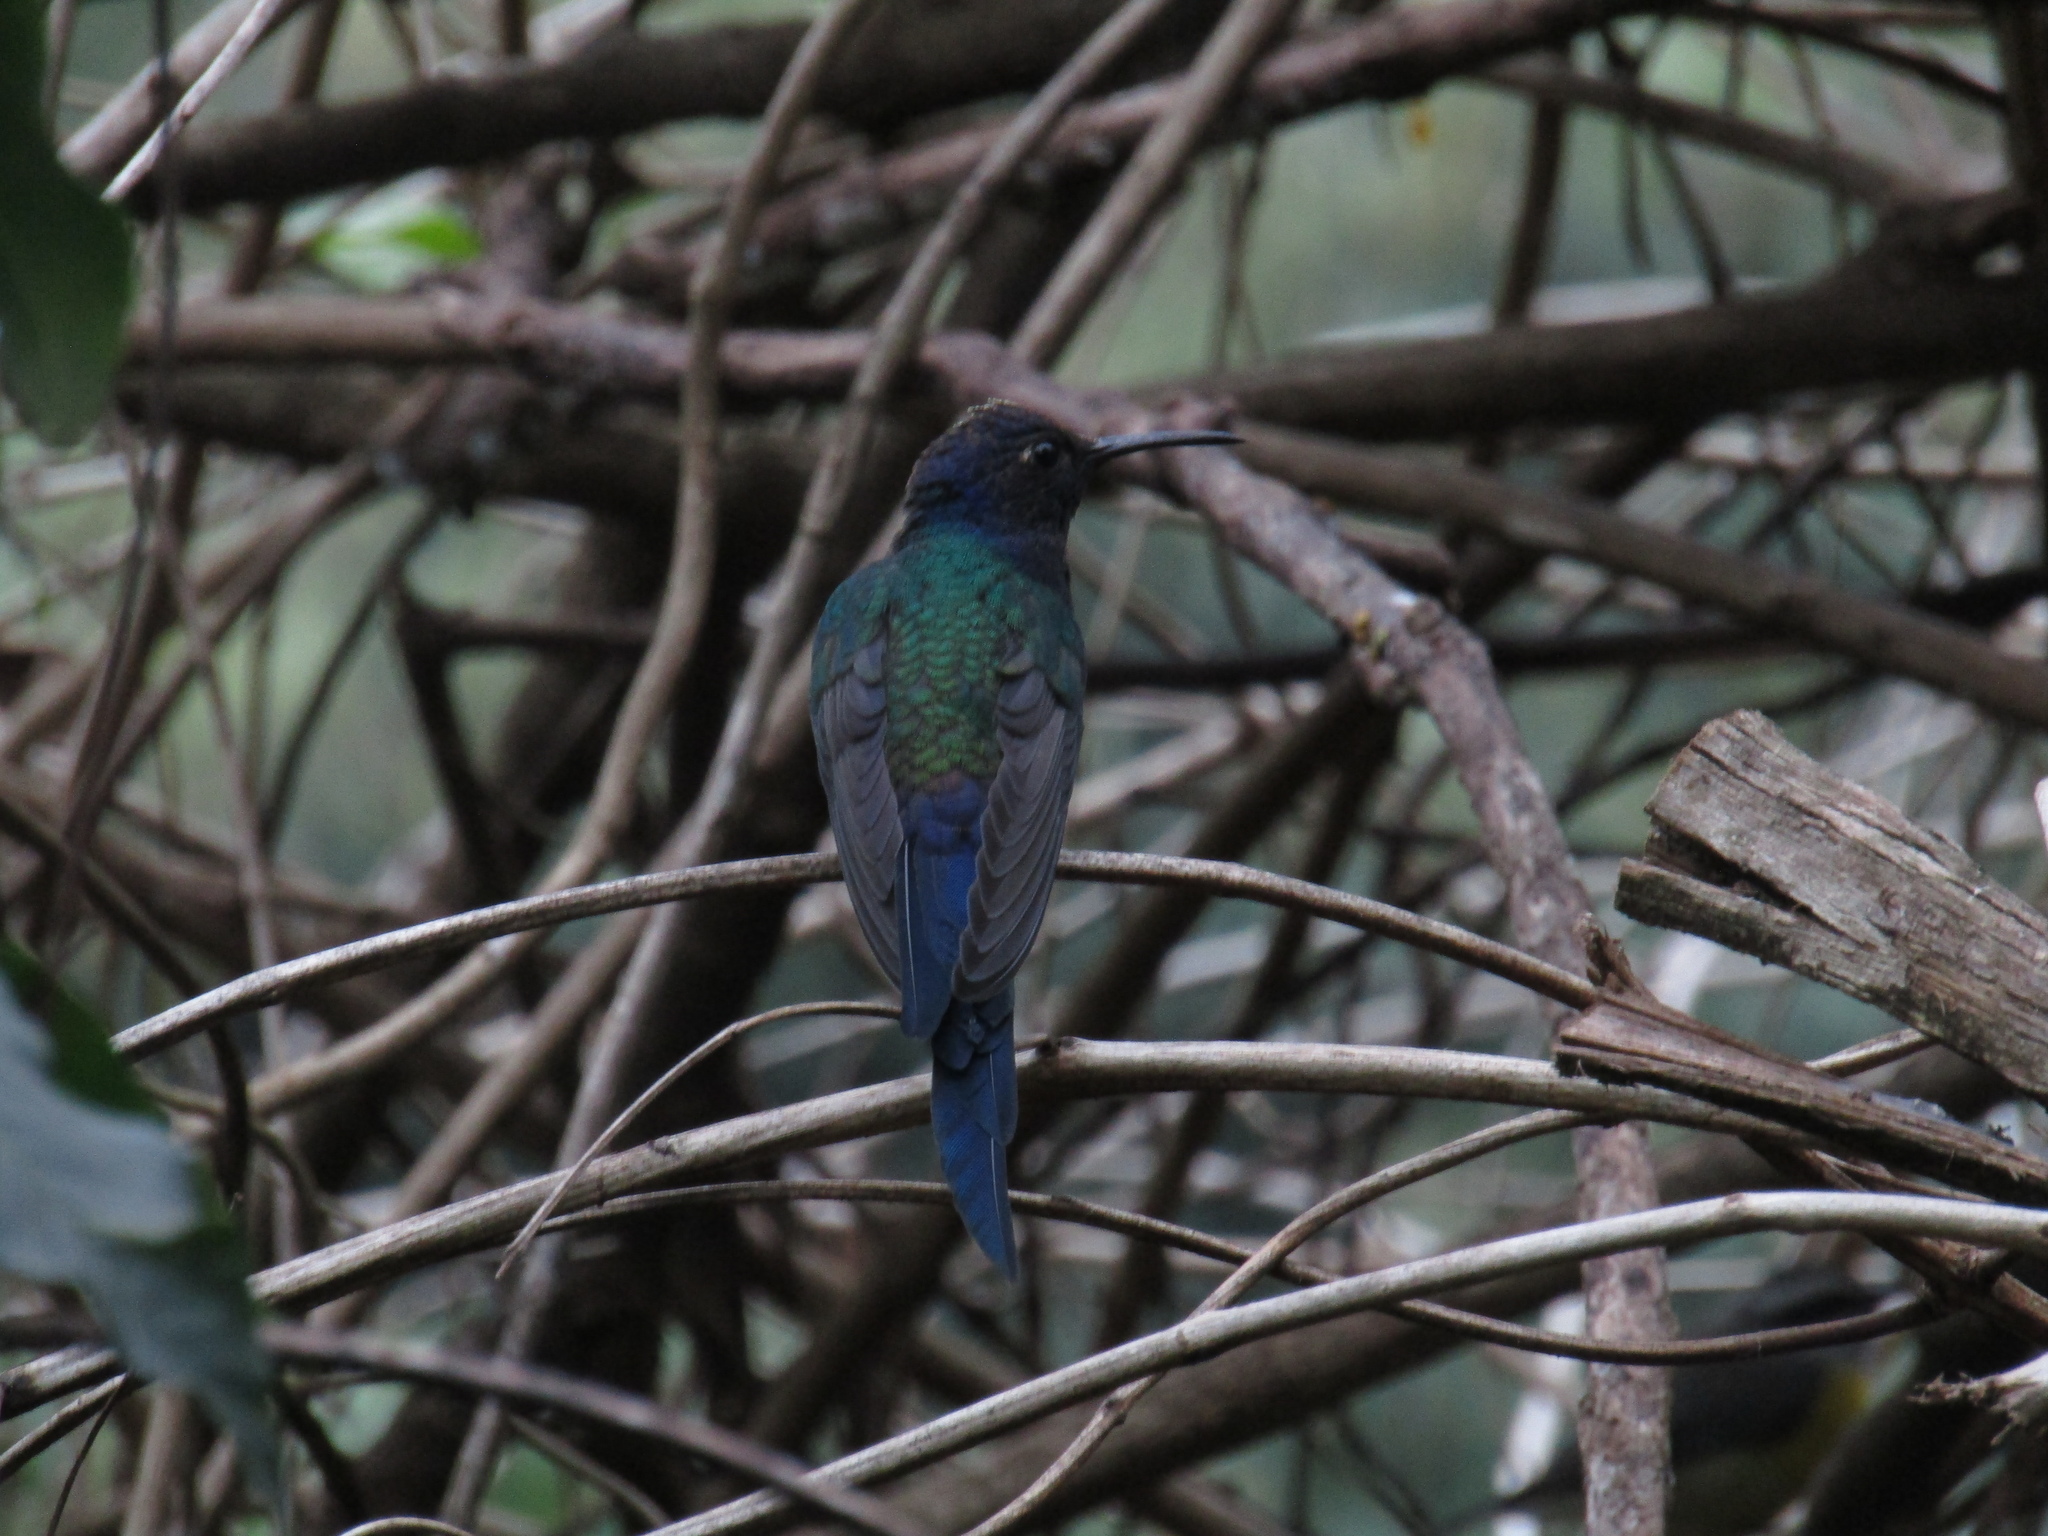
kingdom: Animalia
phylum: Chordata
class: Aves
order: Apodiformes
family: Trochilidae
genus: Eupetomena
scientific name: Eupetomena macroura
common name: Swallow-tailed hummingbird
